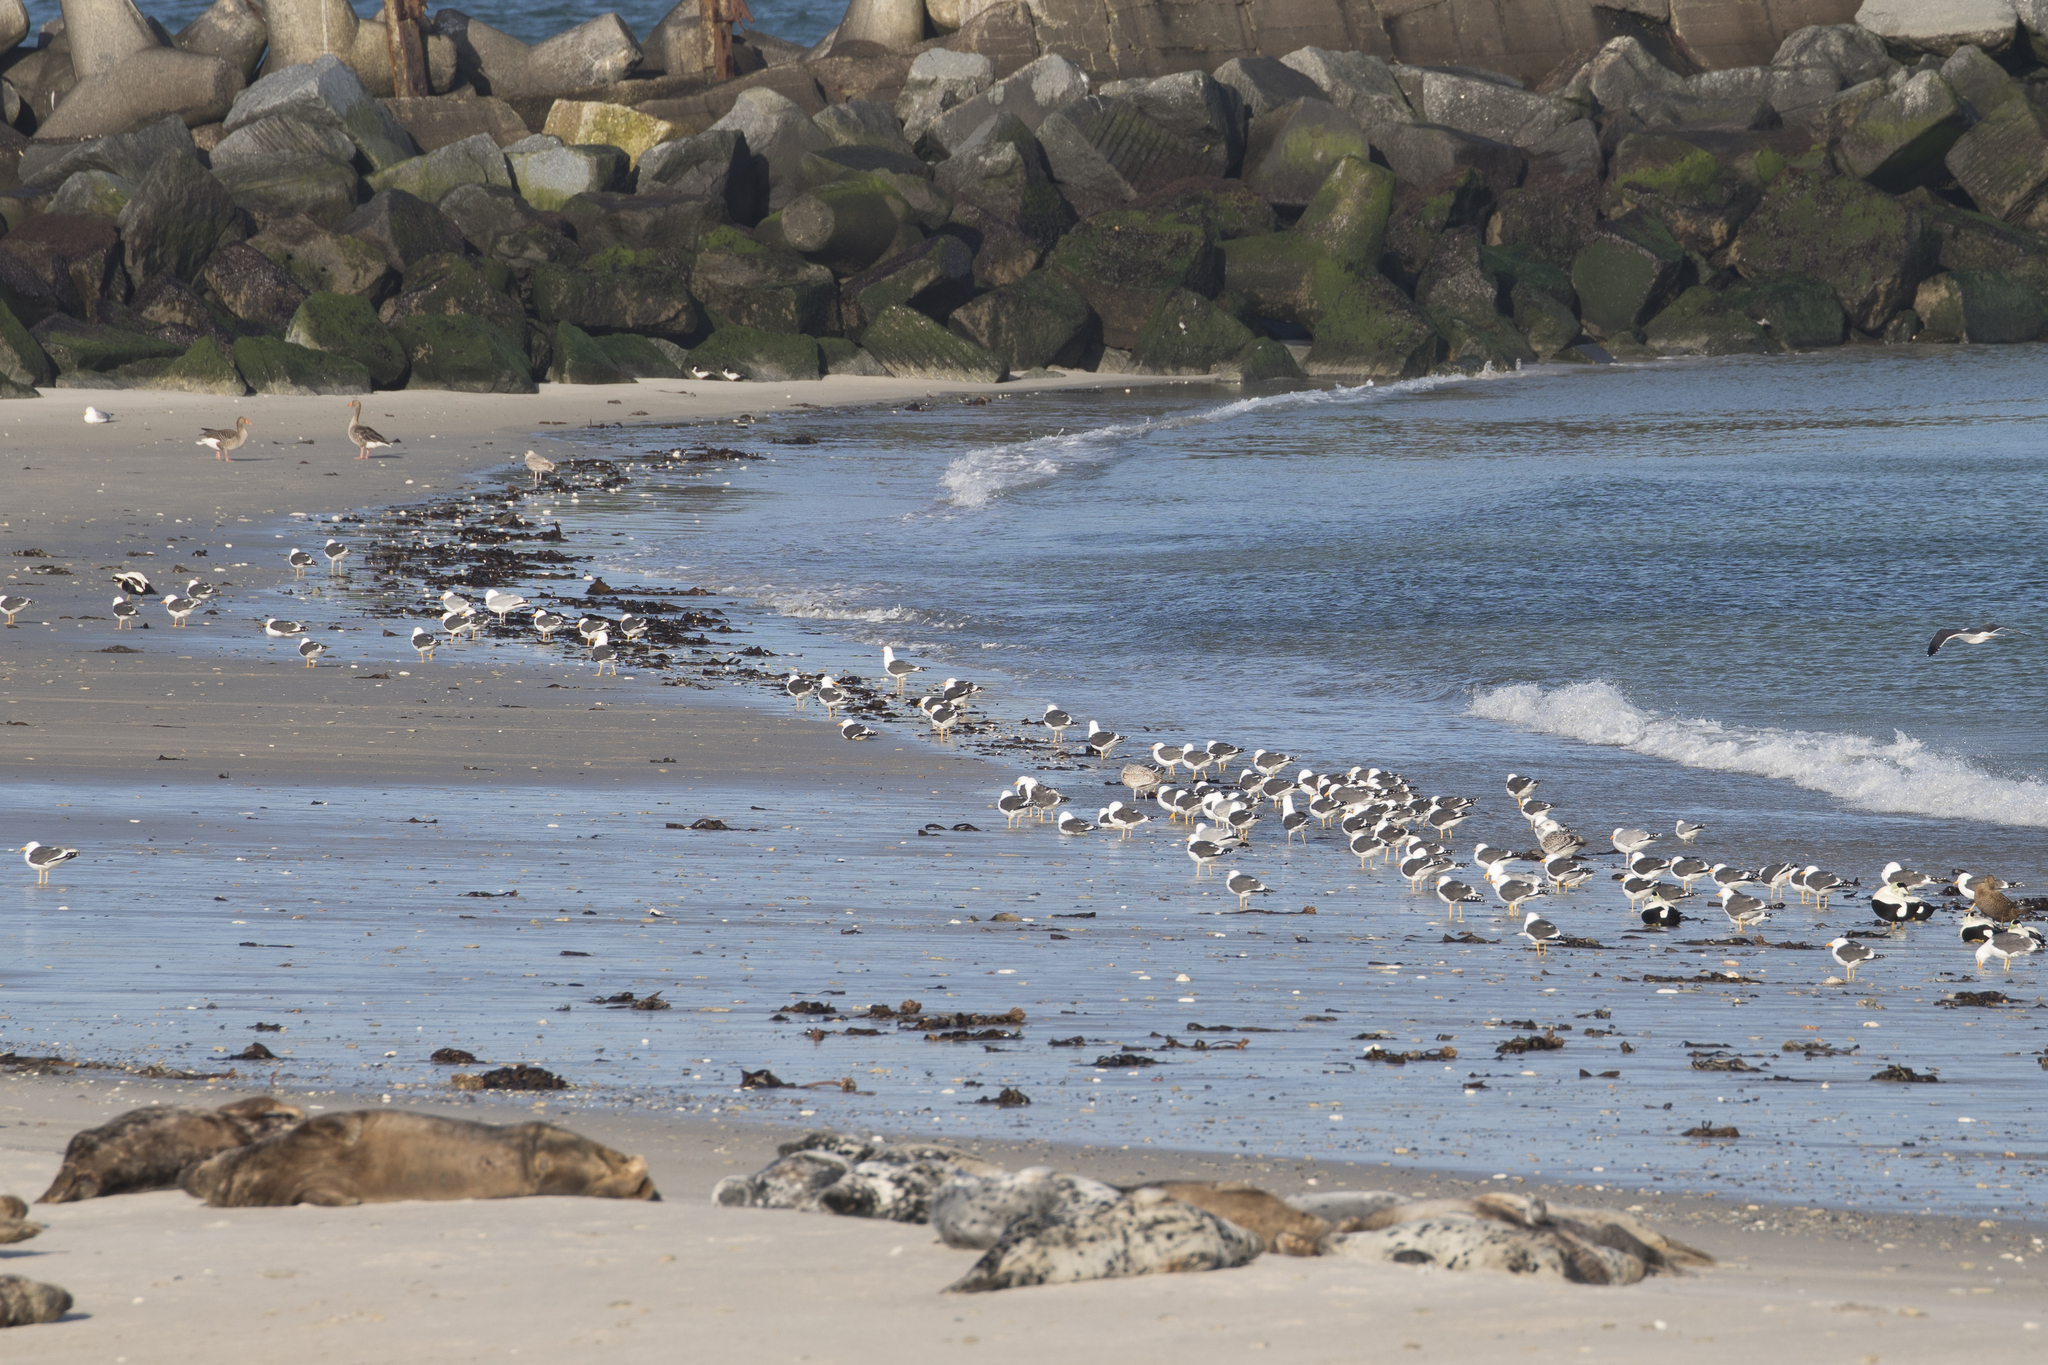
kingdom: Animalia
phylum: Chordata
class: Aves
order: Anseriformes
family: Anatidae
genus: Anser
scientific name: Anser anser
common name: Greylag goose
